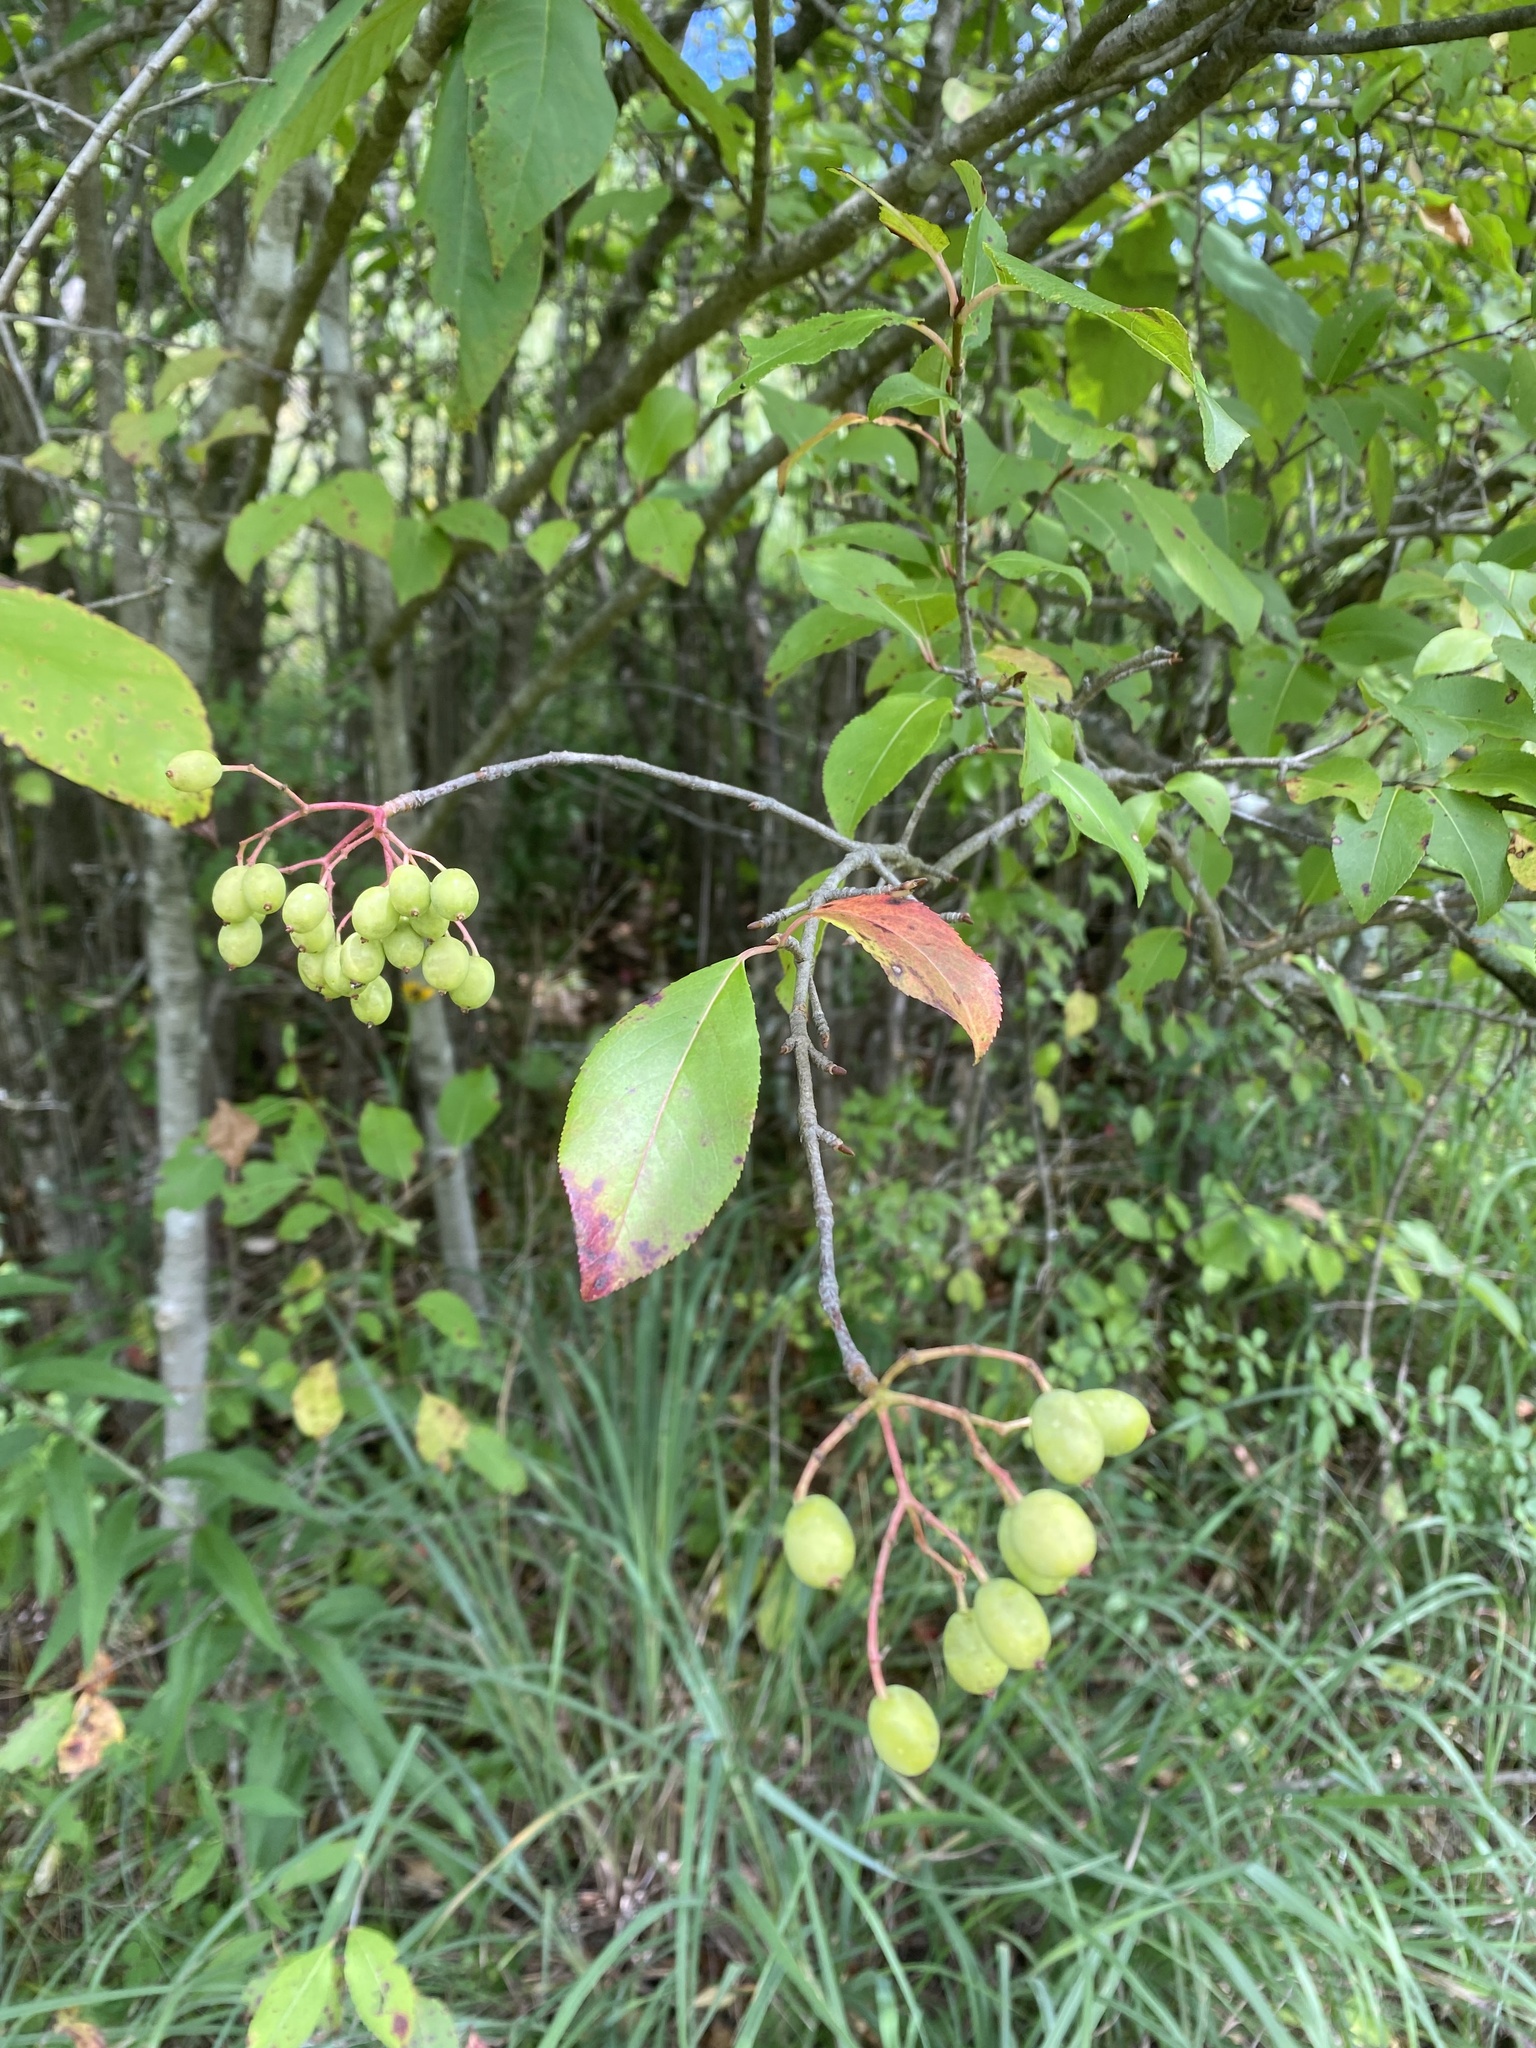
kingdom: Plantae
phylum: Tracheophyta
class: Magnoliopsida
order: Dipsacales
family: Viburnaceae
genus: Viburnum
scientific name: Viburnum prunifolium
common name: Black haw
